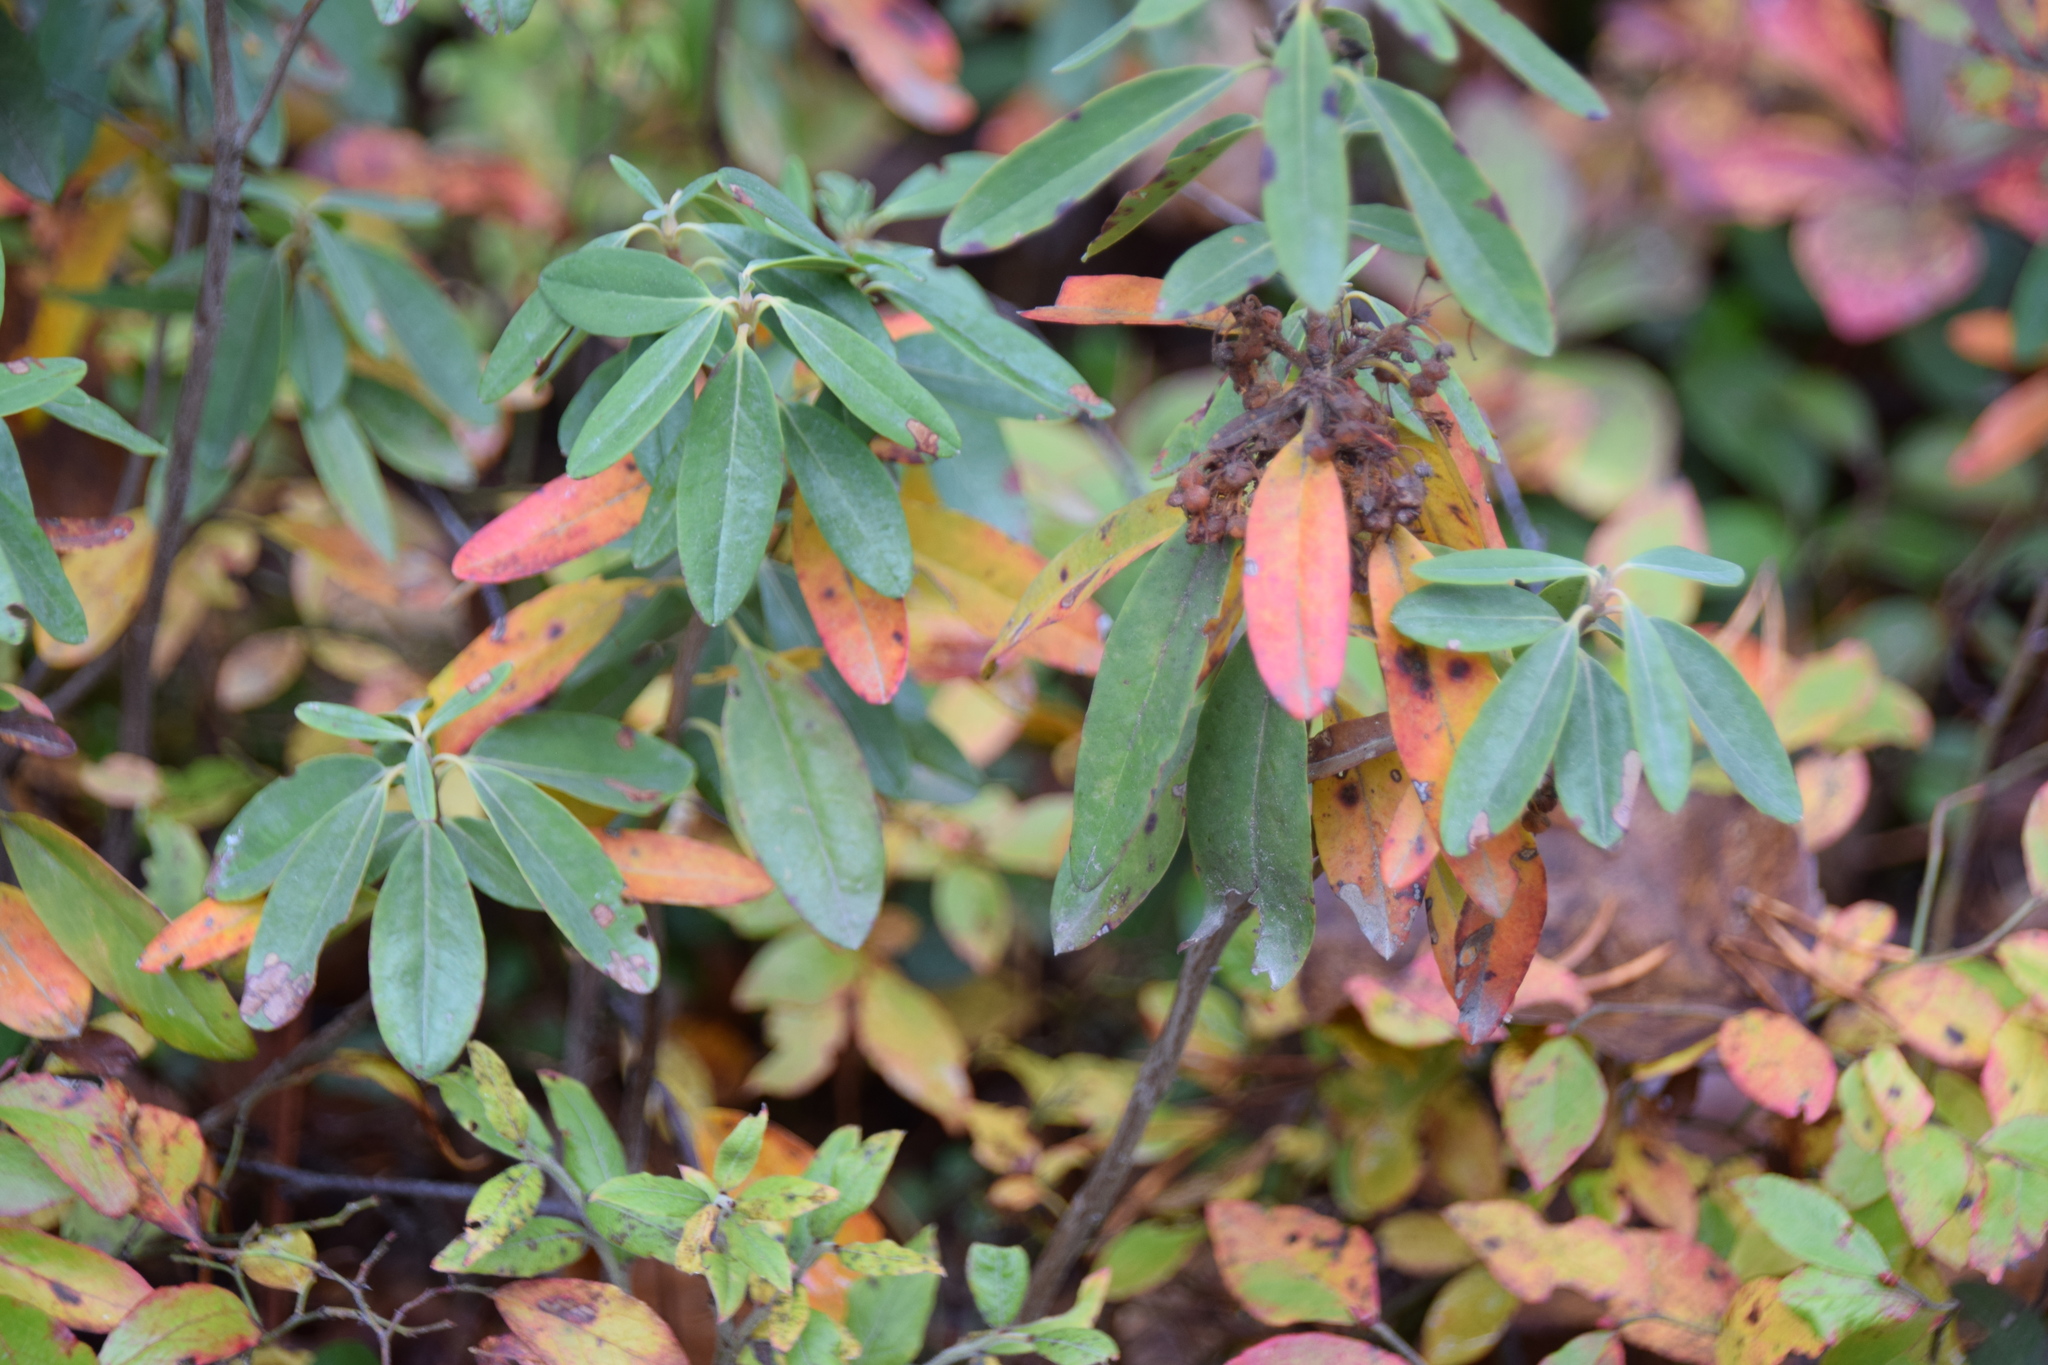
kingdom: Plantae
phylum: Tracheophyta
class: Magnoliopsida
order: Ericales
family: Ericaceae
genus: Kalmia
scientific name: Kalmia angustifolia
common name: Sheep-laurel
